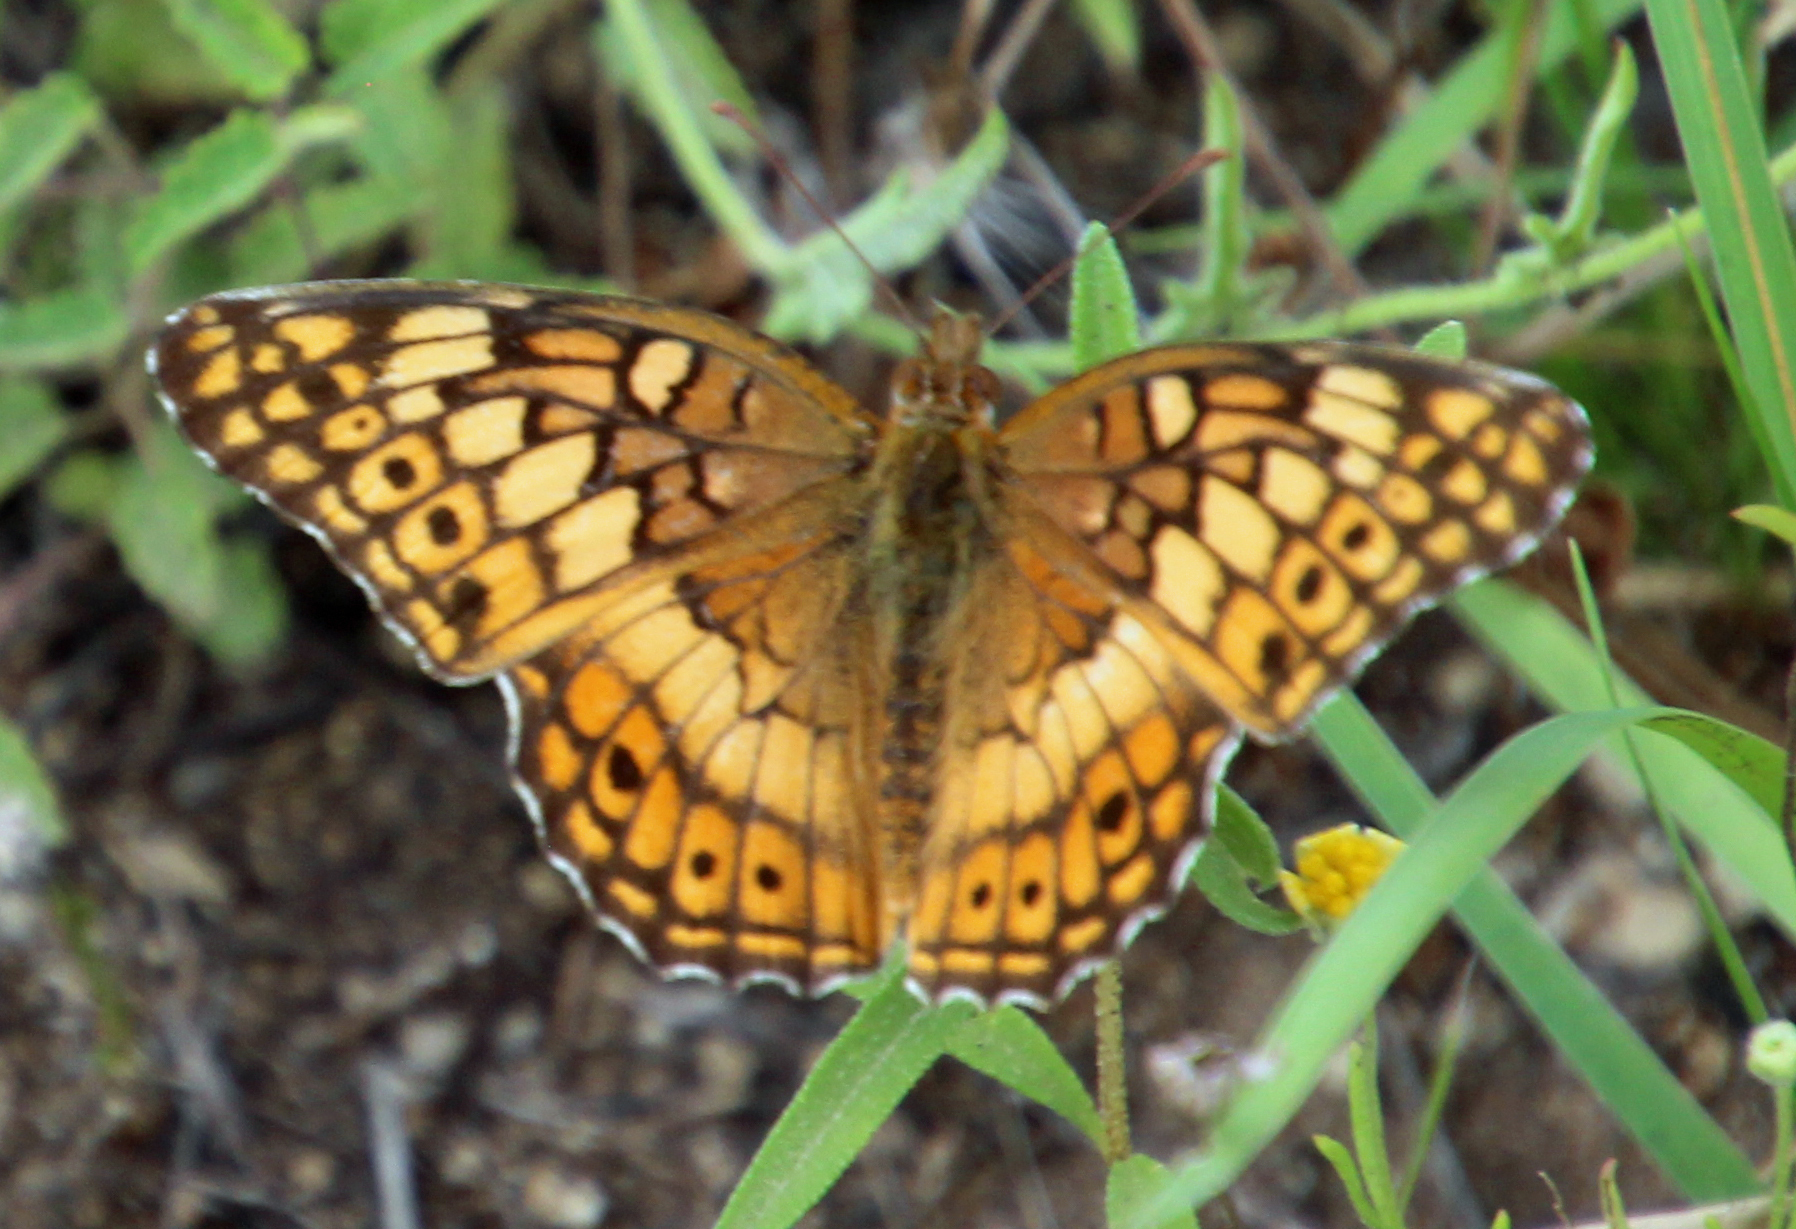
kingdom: Animalia
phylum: Arthropoda
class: Insecta
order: Lepidoptera
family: Nymphalidae
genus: Euptoieta
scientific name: Euptoieta claudia
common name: Variegated fritillary
